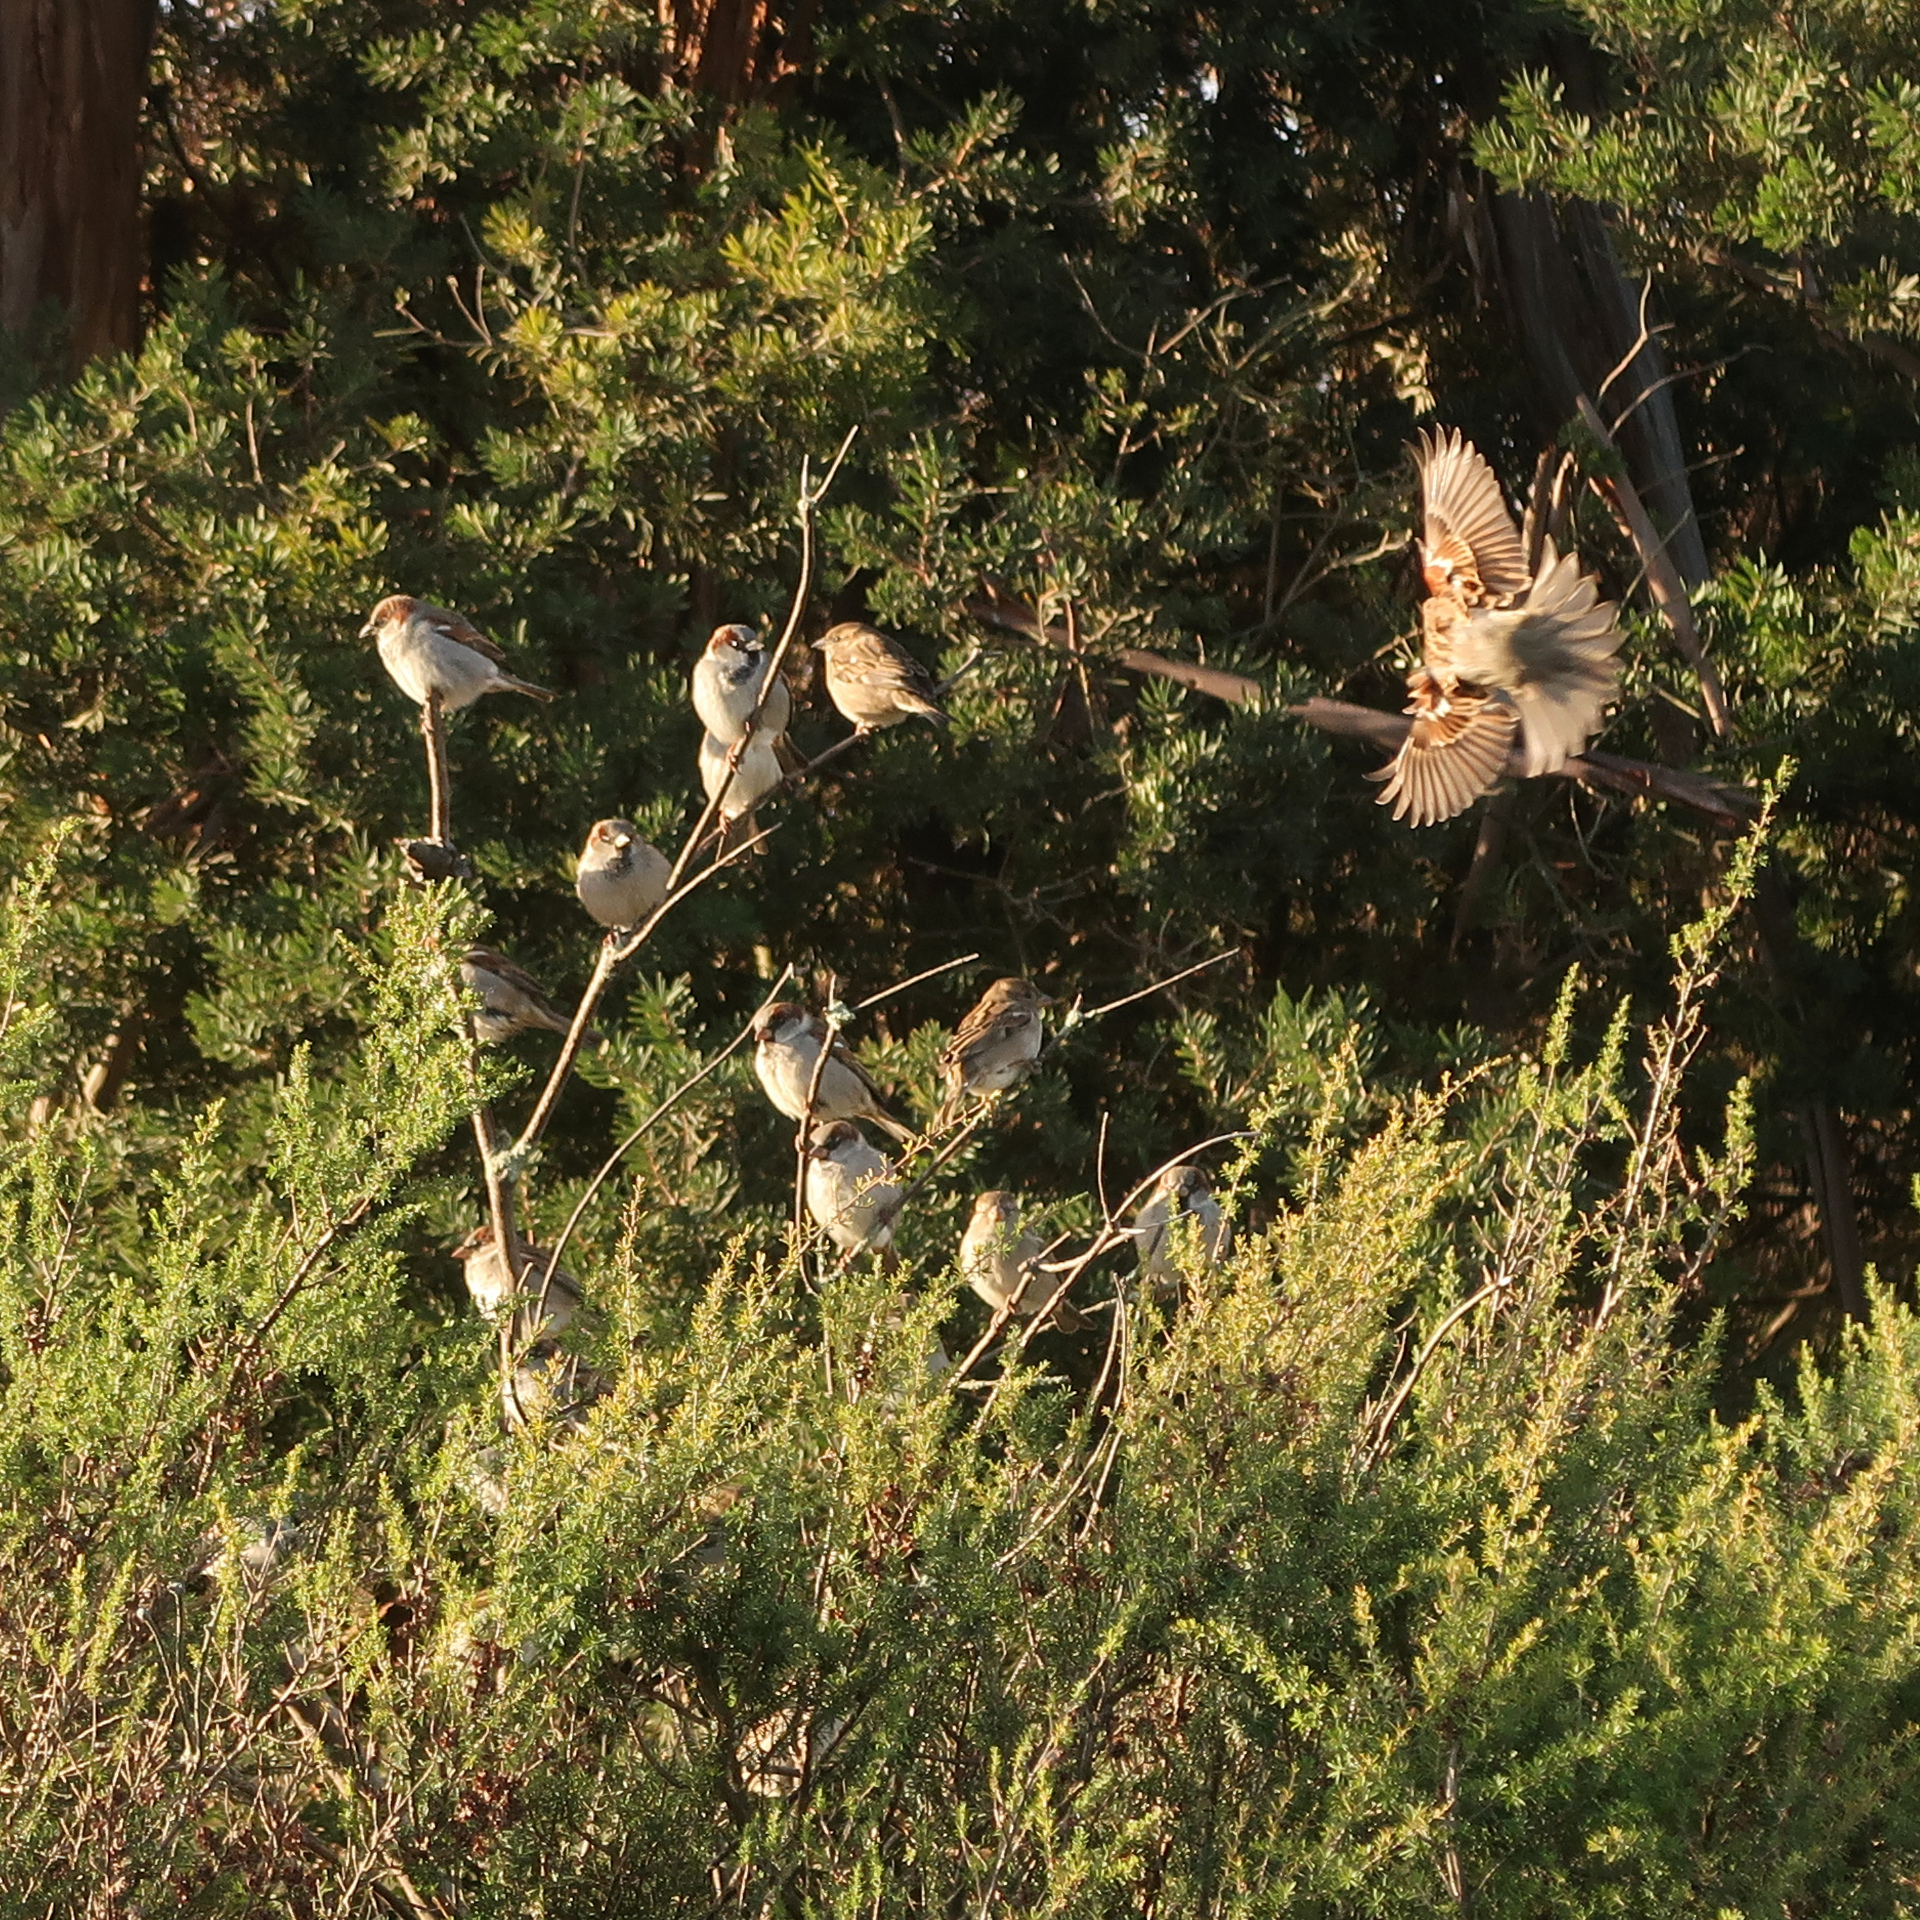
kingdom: Animalia
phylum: Chordata
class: Aves
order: Passeriformes
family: Passeridae
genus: Passer
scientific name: Passer domesticus
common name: House sparrow
